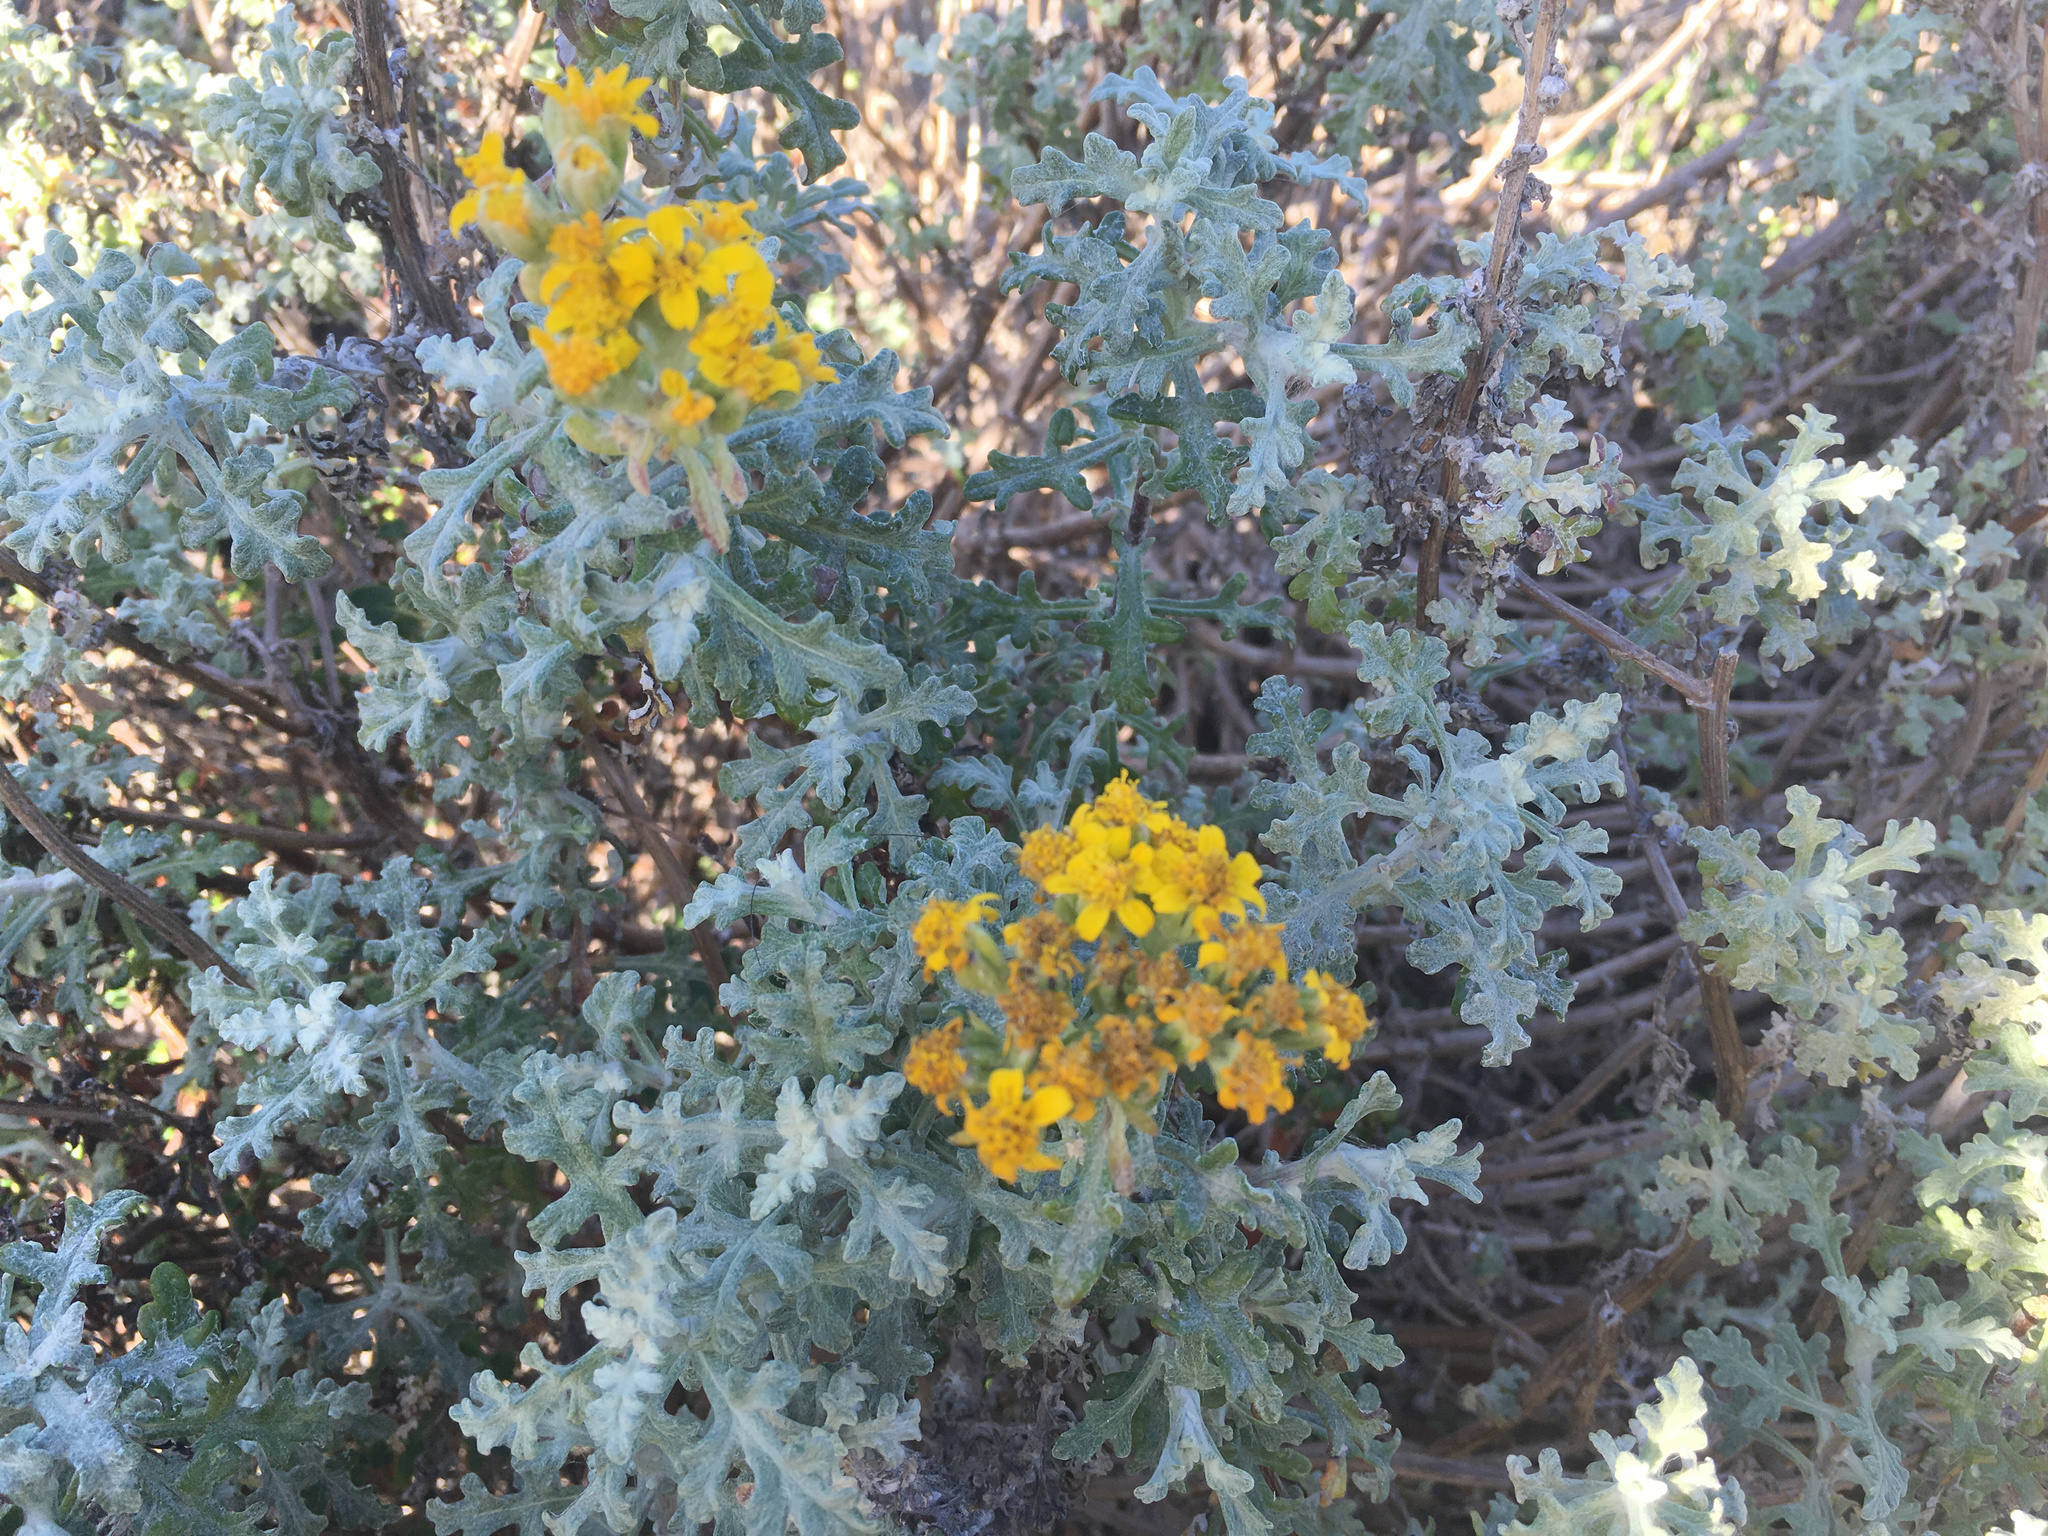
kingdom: Plantae
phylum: Tracheophyta
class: Magnoliopsida
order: Asterales
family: Asteraceae
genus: Eriophyllum
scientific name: Eriophyllum staechadifolium
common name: Lizardtail
